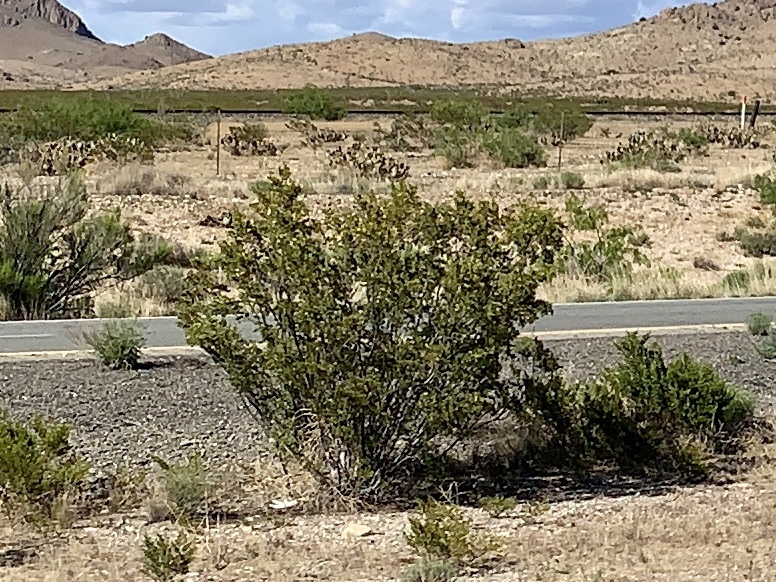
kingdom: Plantae
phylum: Tracheophyta
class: Magnoliopsida
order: Zygophyllales
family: Zygophyllaceae
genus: Larrea
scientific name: Larrea tridentata
